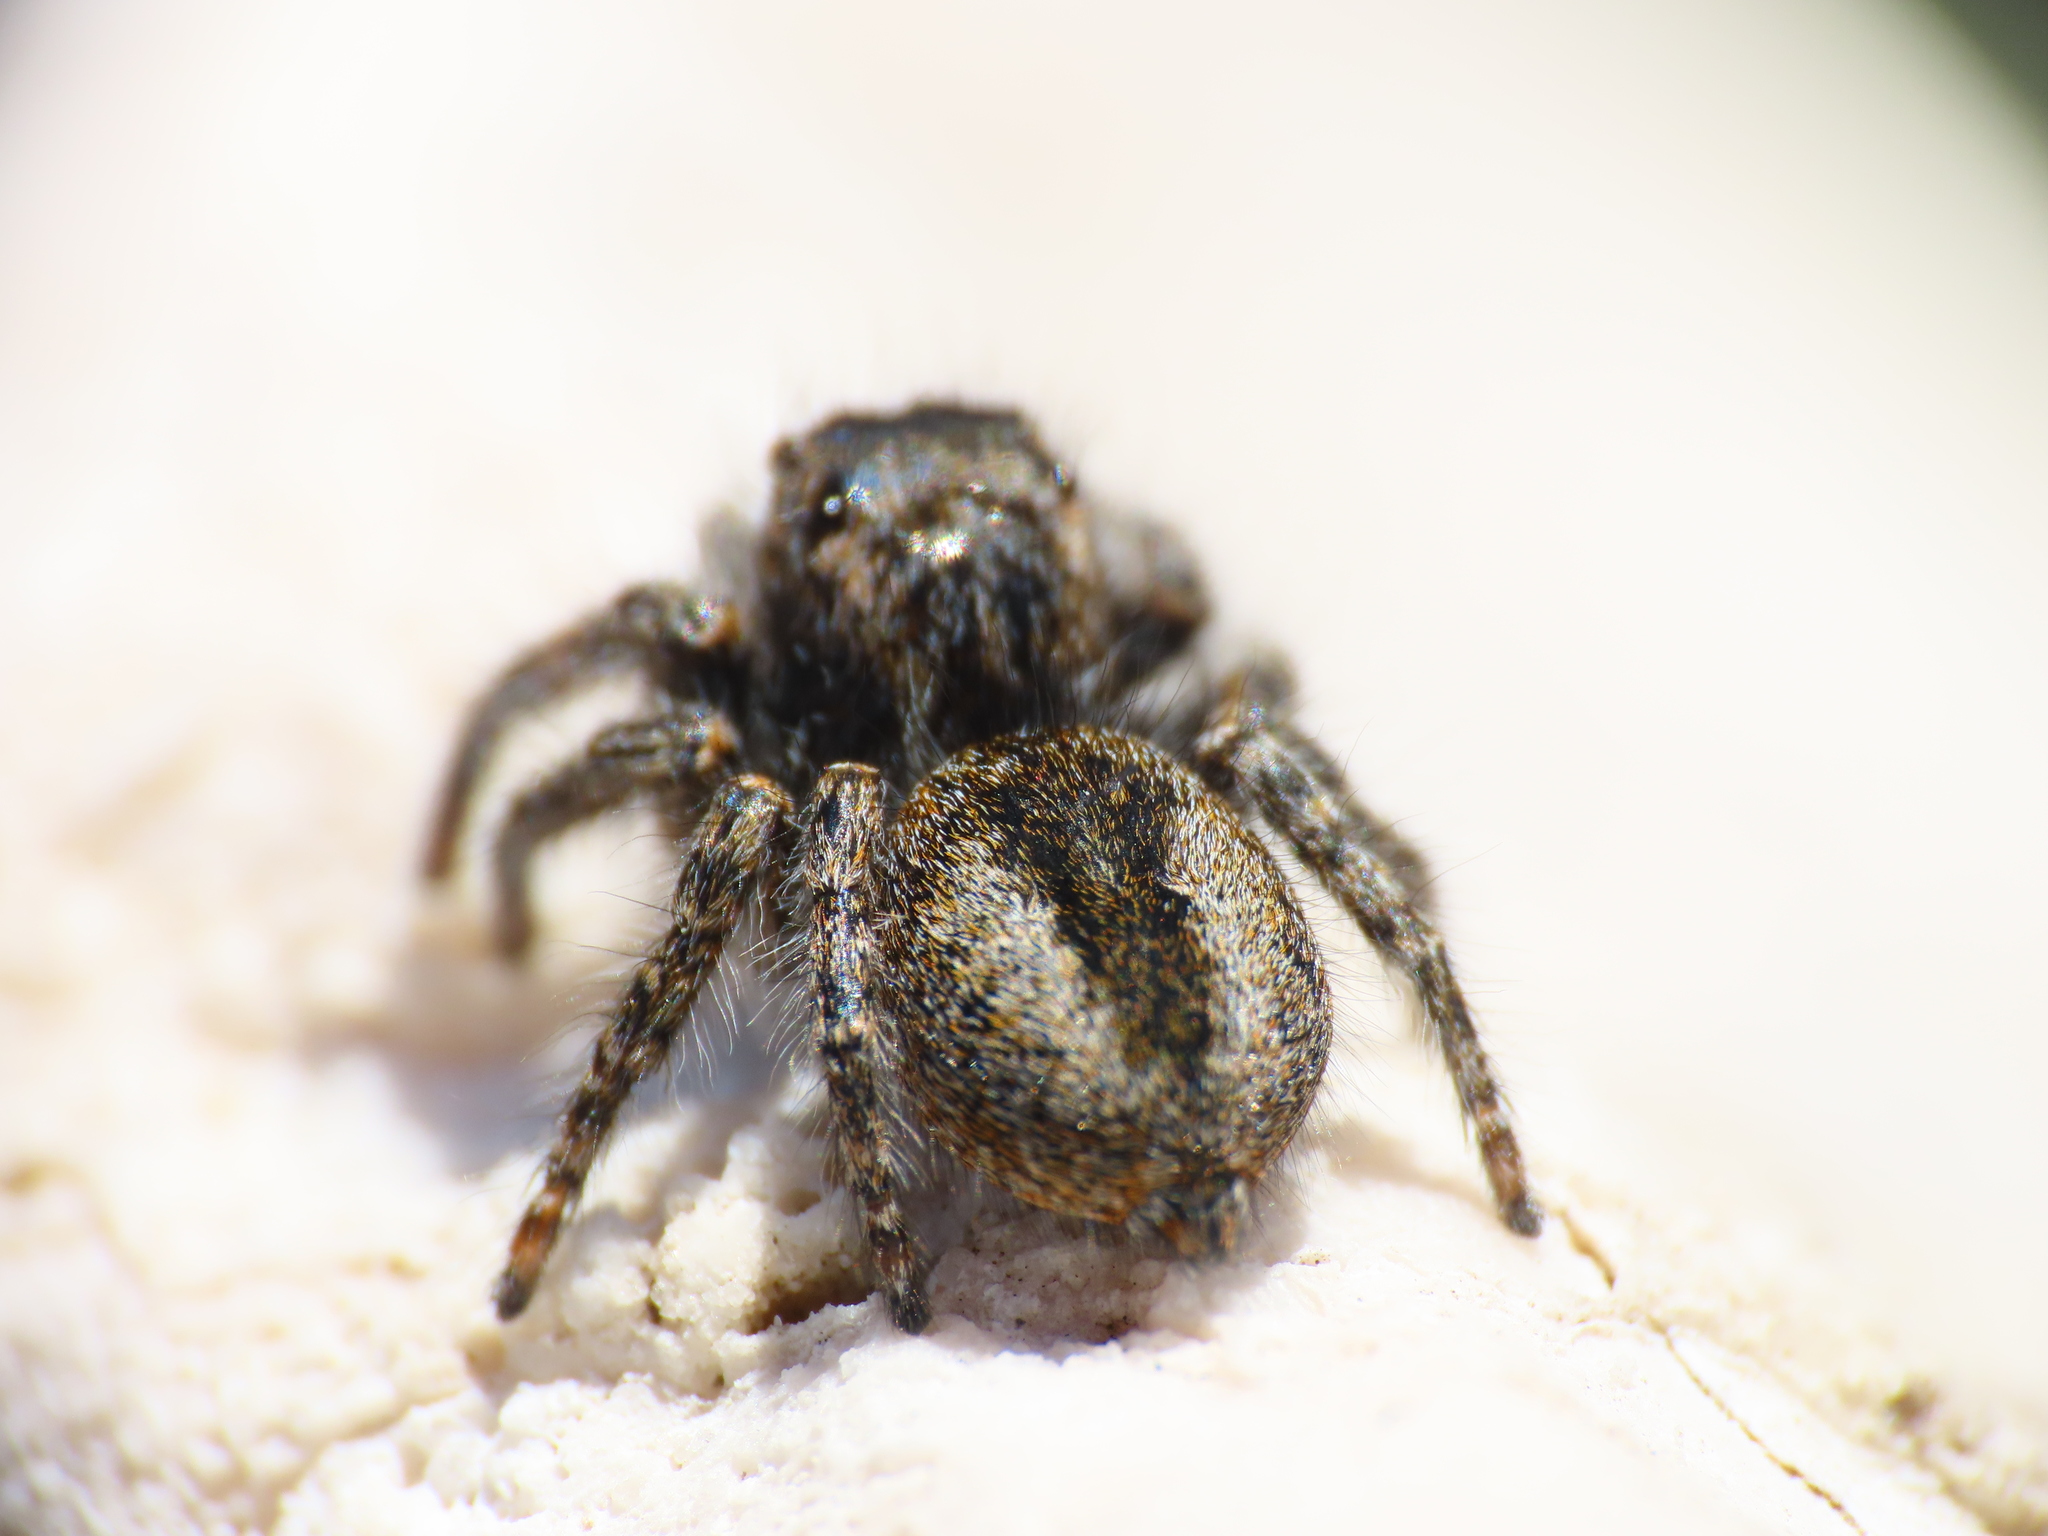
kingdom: Animalia
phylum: Arthropoda
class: Arachnida
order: Araneae
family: Salticidae
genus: Philaeus
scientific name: Philaeus chrysops
